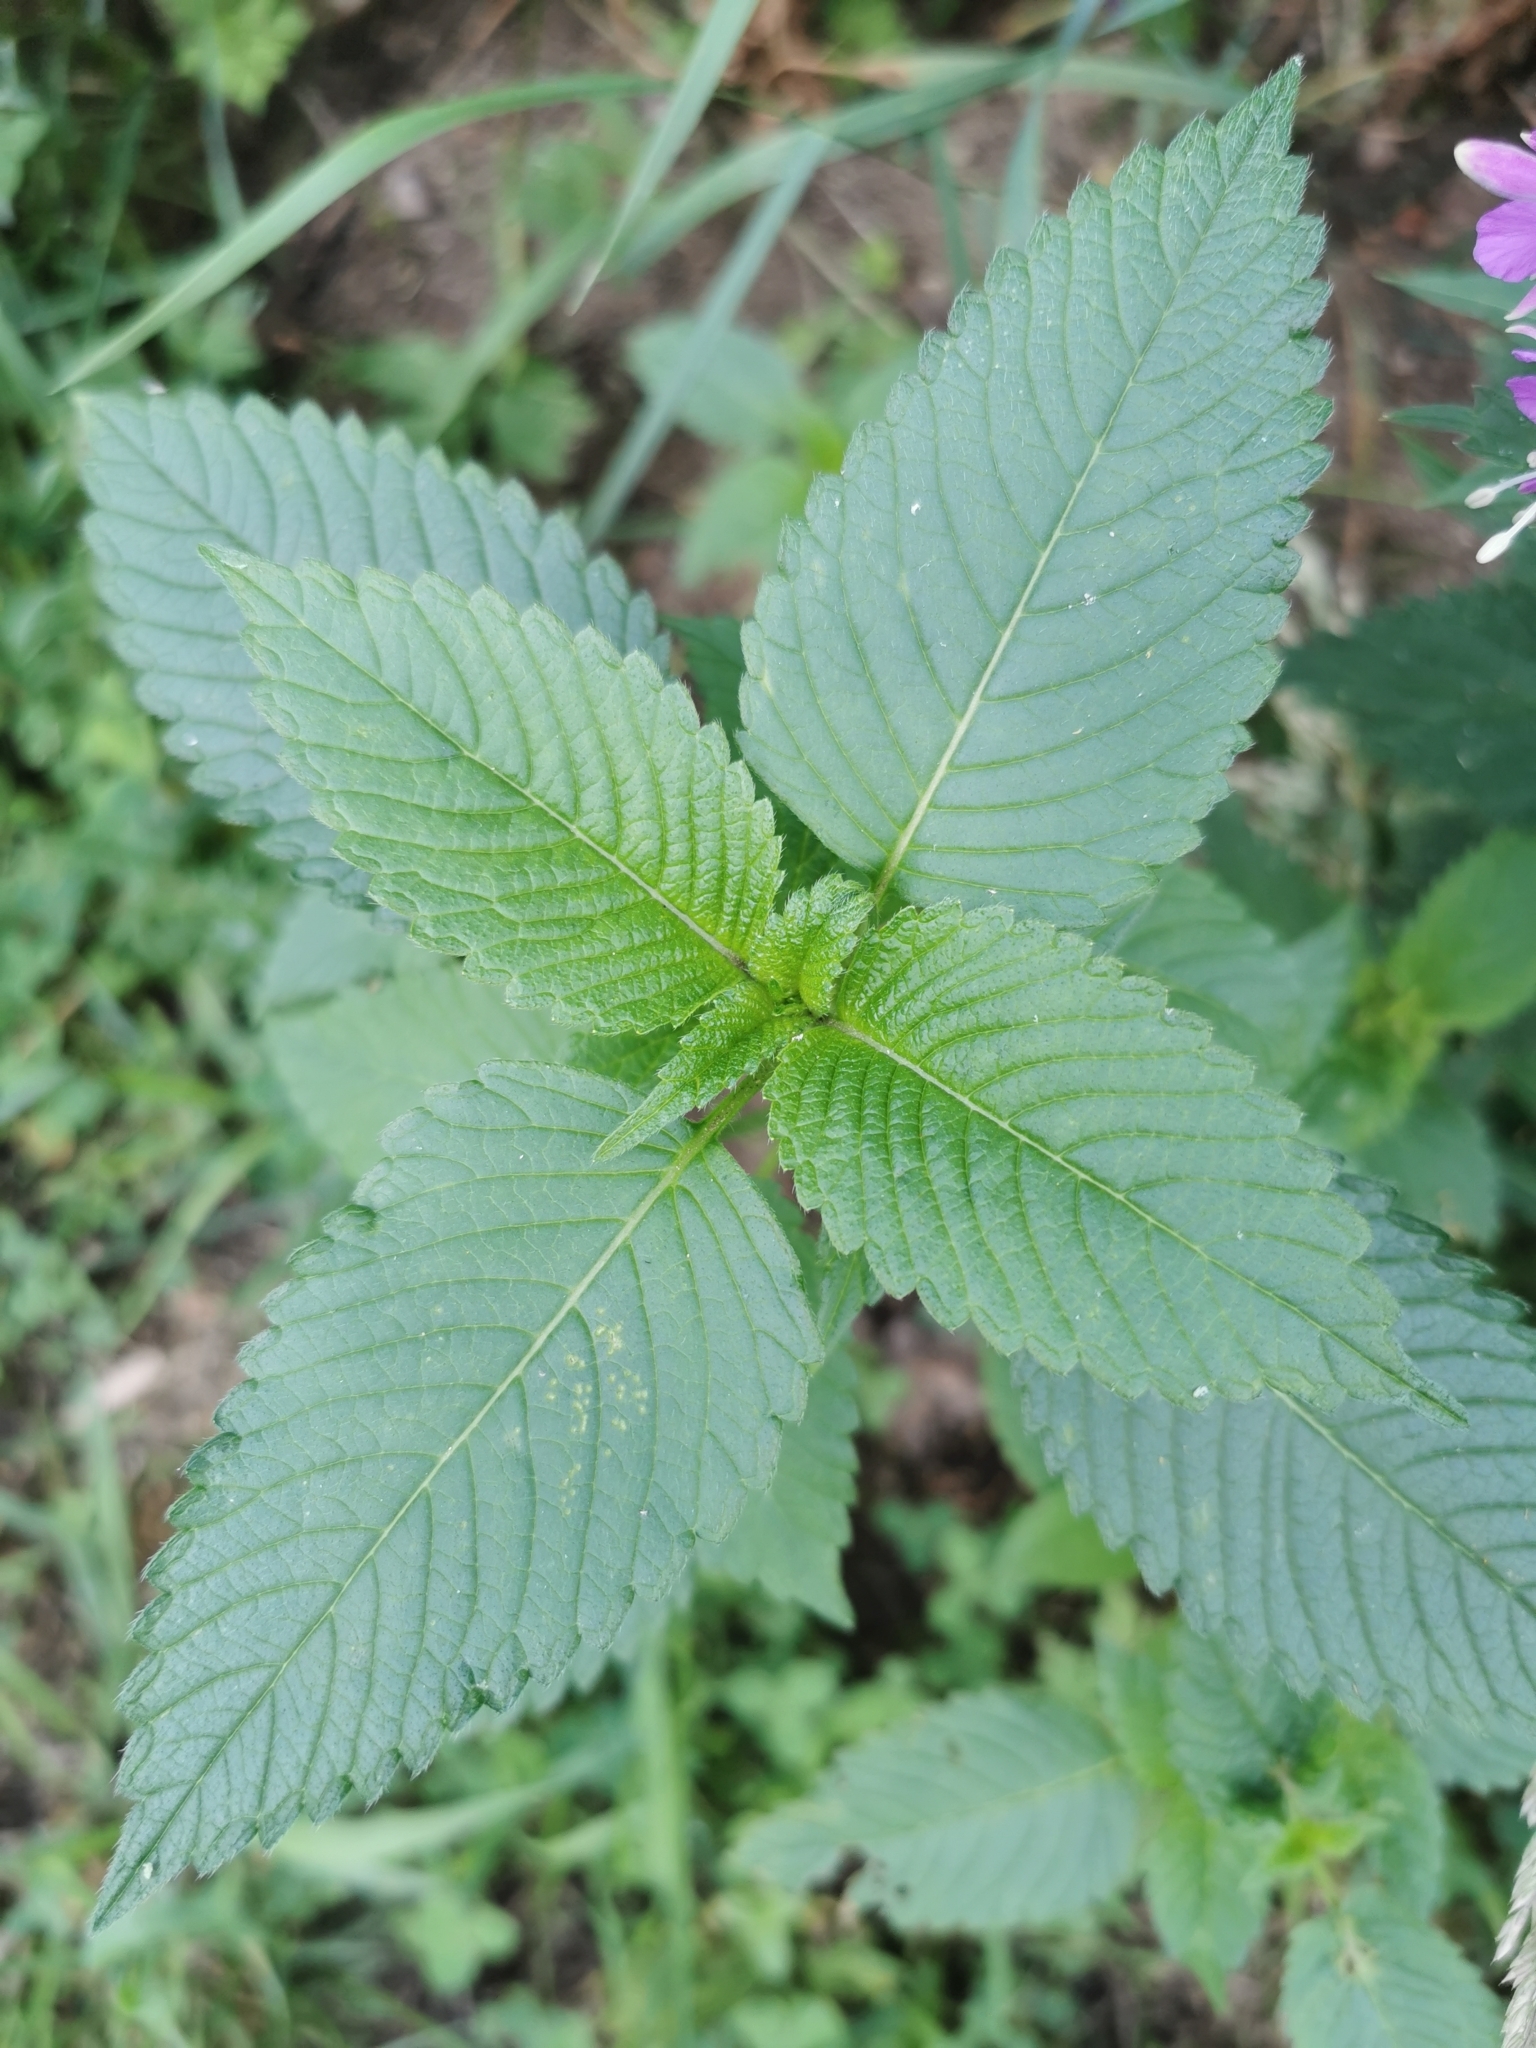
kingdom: Plantae
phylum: Tracheophyta
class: Magnoliopsida
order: Lamiales
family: Lamiaceae
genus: Galeopsis
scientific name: Galeopsis tetrahit
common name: Common hemp-nettle
